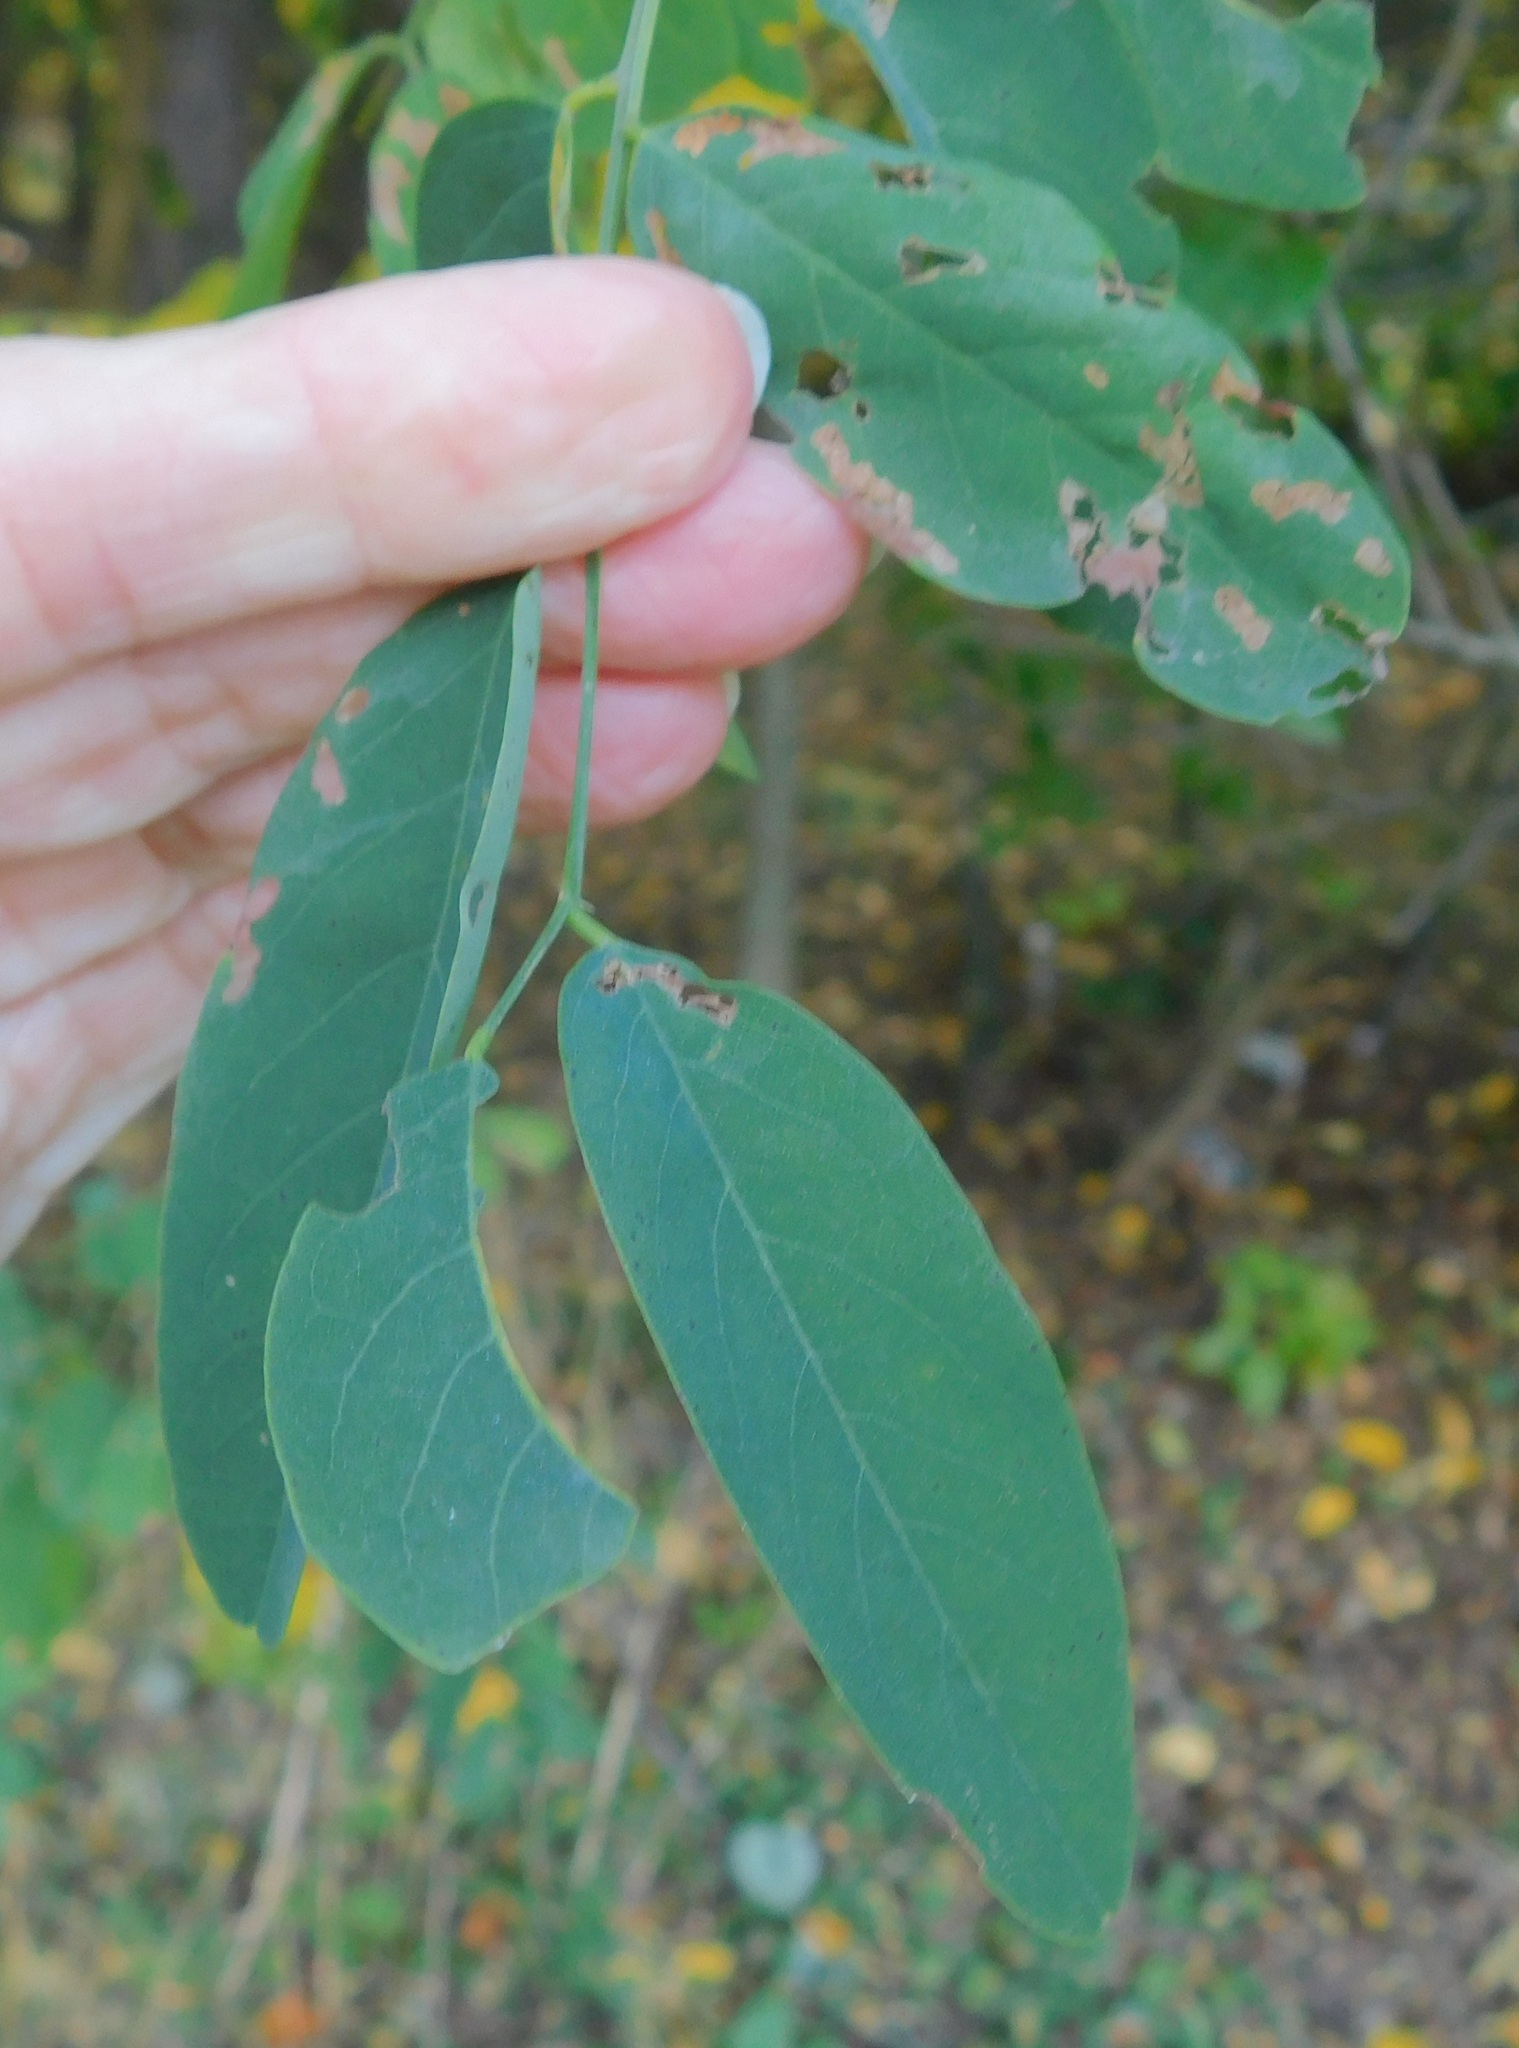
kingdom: Plantae
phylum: Tracheophyta
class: Magnoliopsida
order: Fabales
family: Fabaceae
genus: Robinia
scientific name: Robinia pseudoacacia
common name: Black locust
